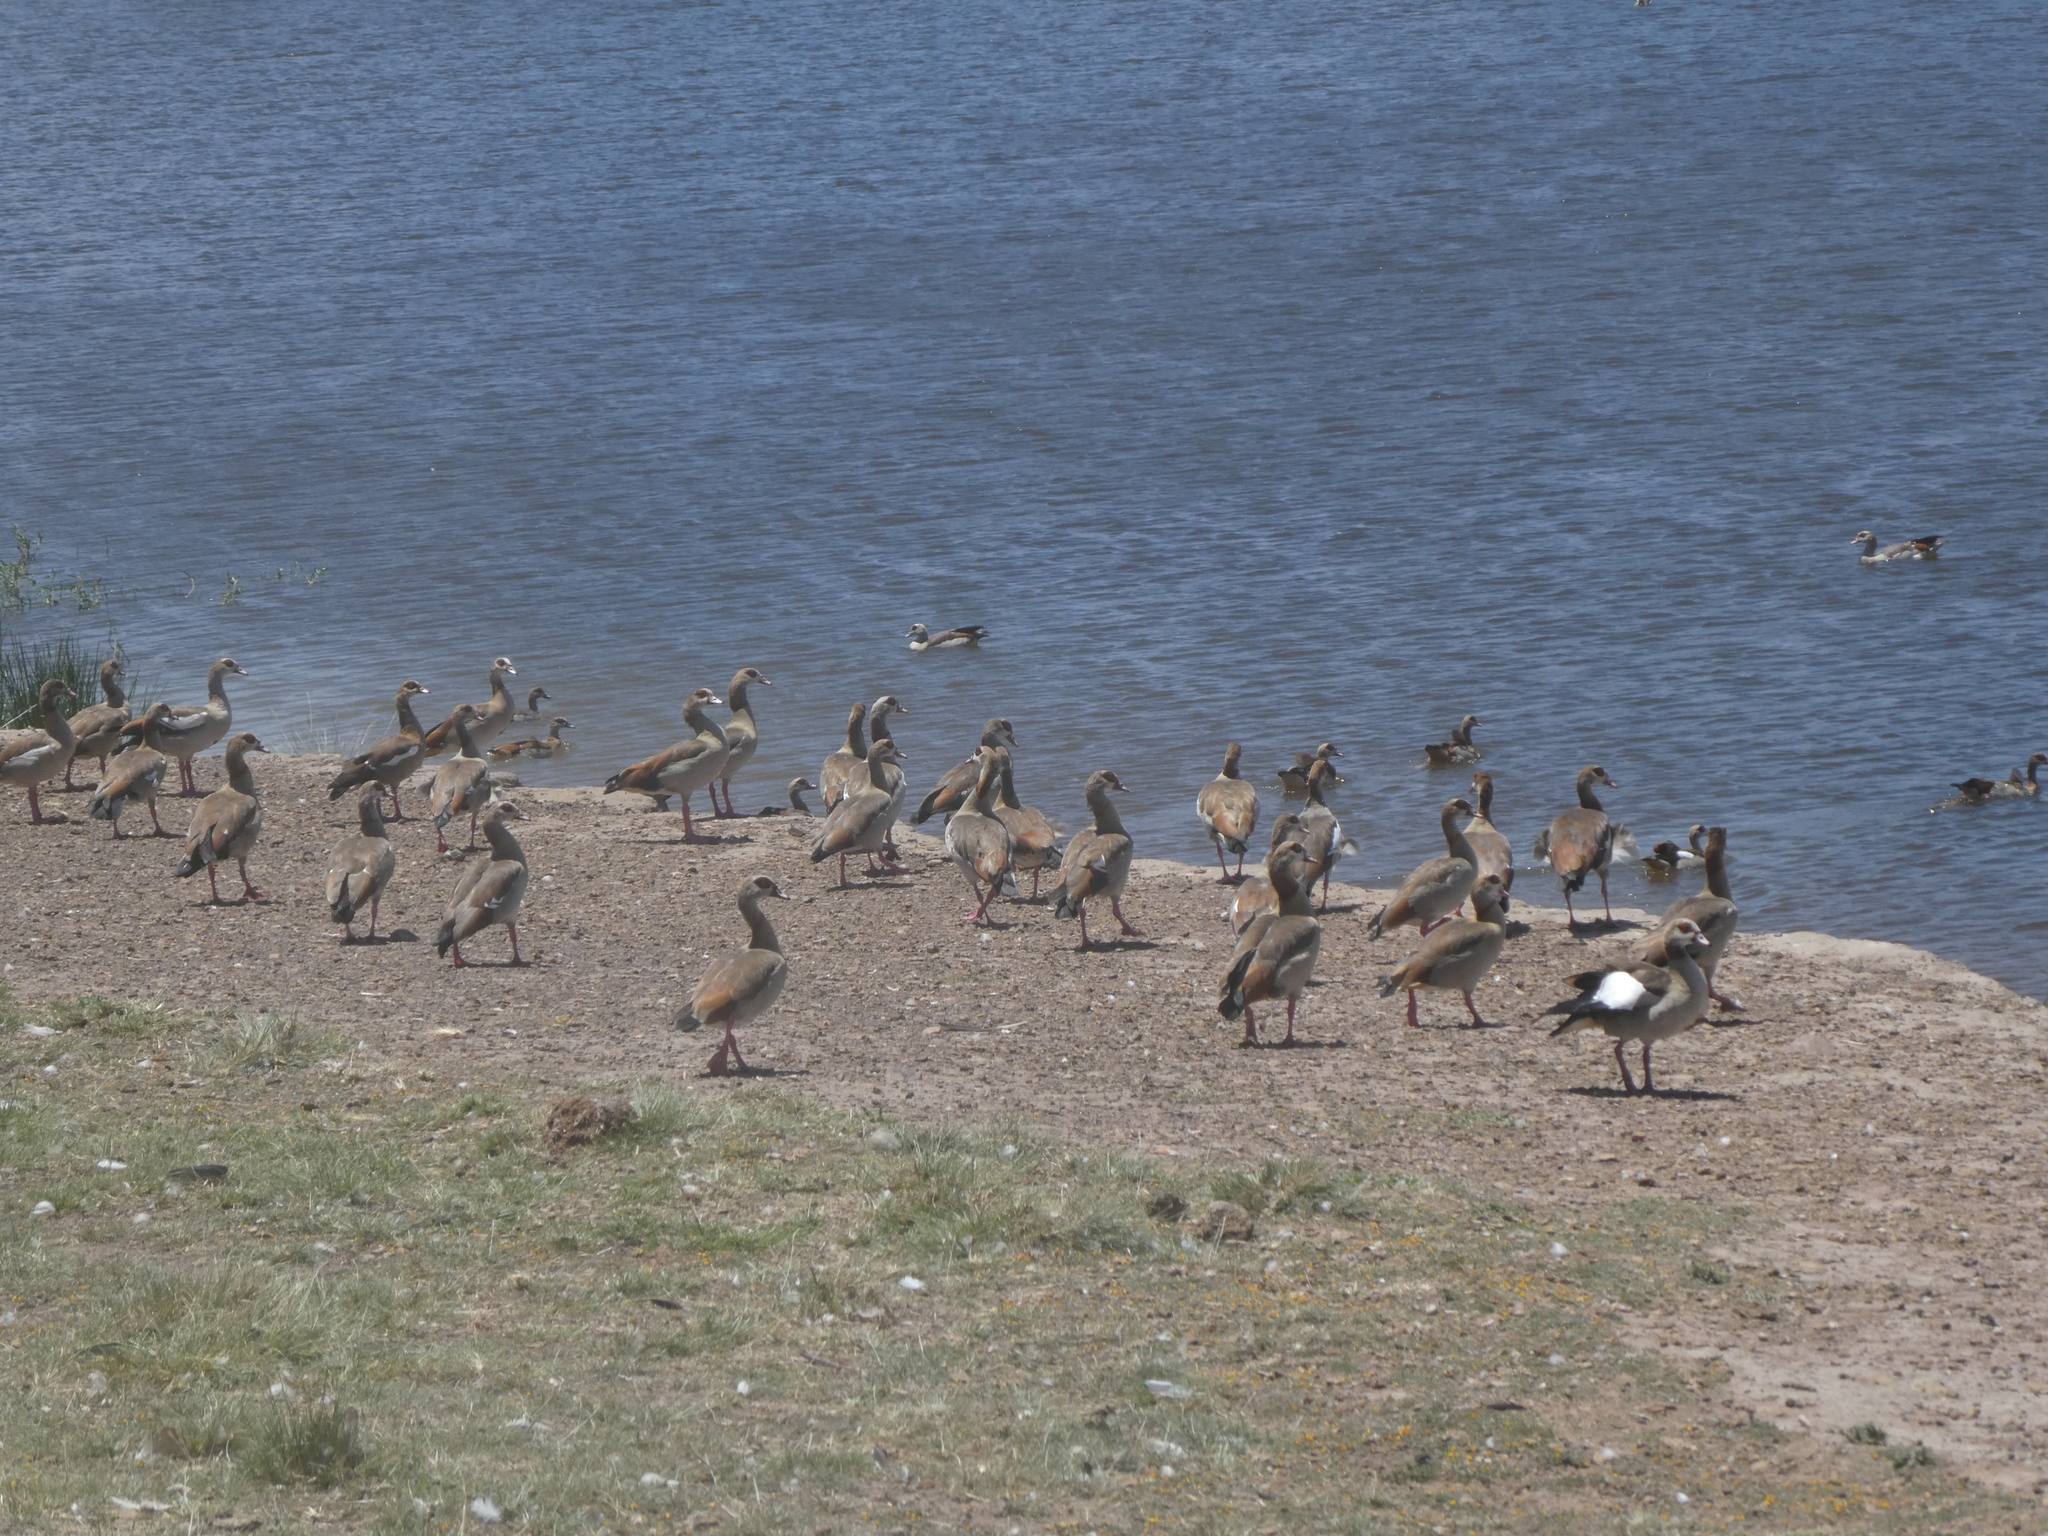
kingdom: Animalia
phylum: Chordata
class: Aves
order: Anseriformes
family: Anatidae
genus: Alopochen
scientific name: Alopochen aegyptiaca
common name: Egyptian goose
